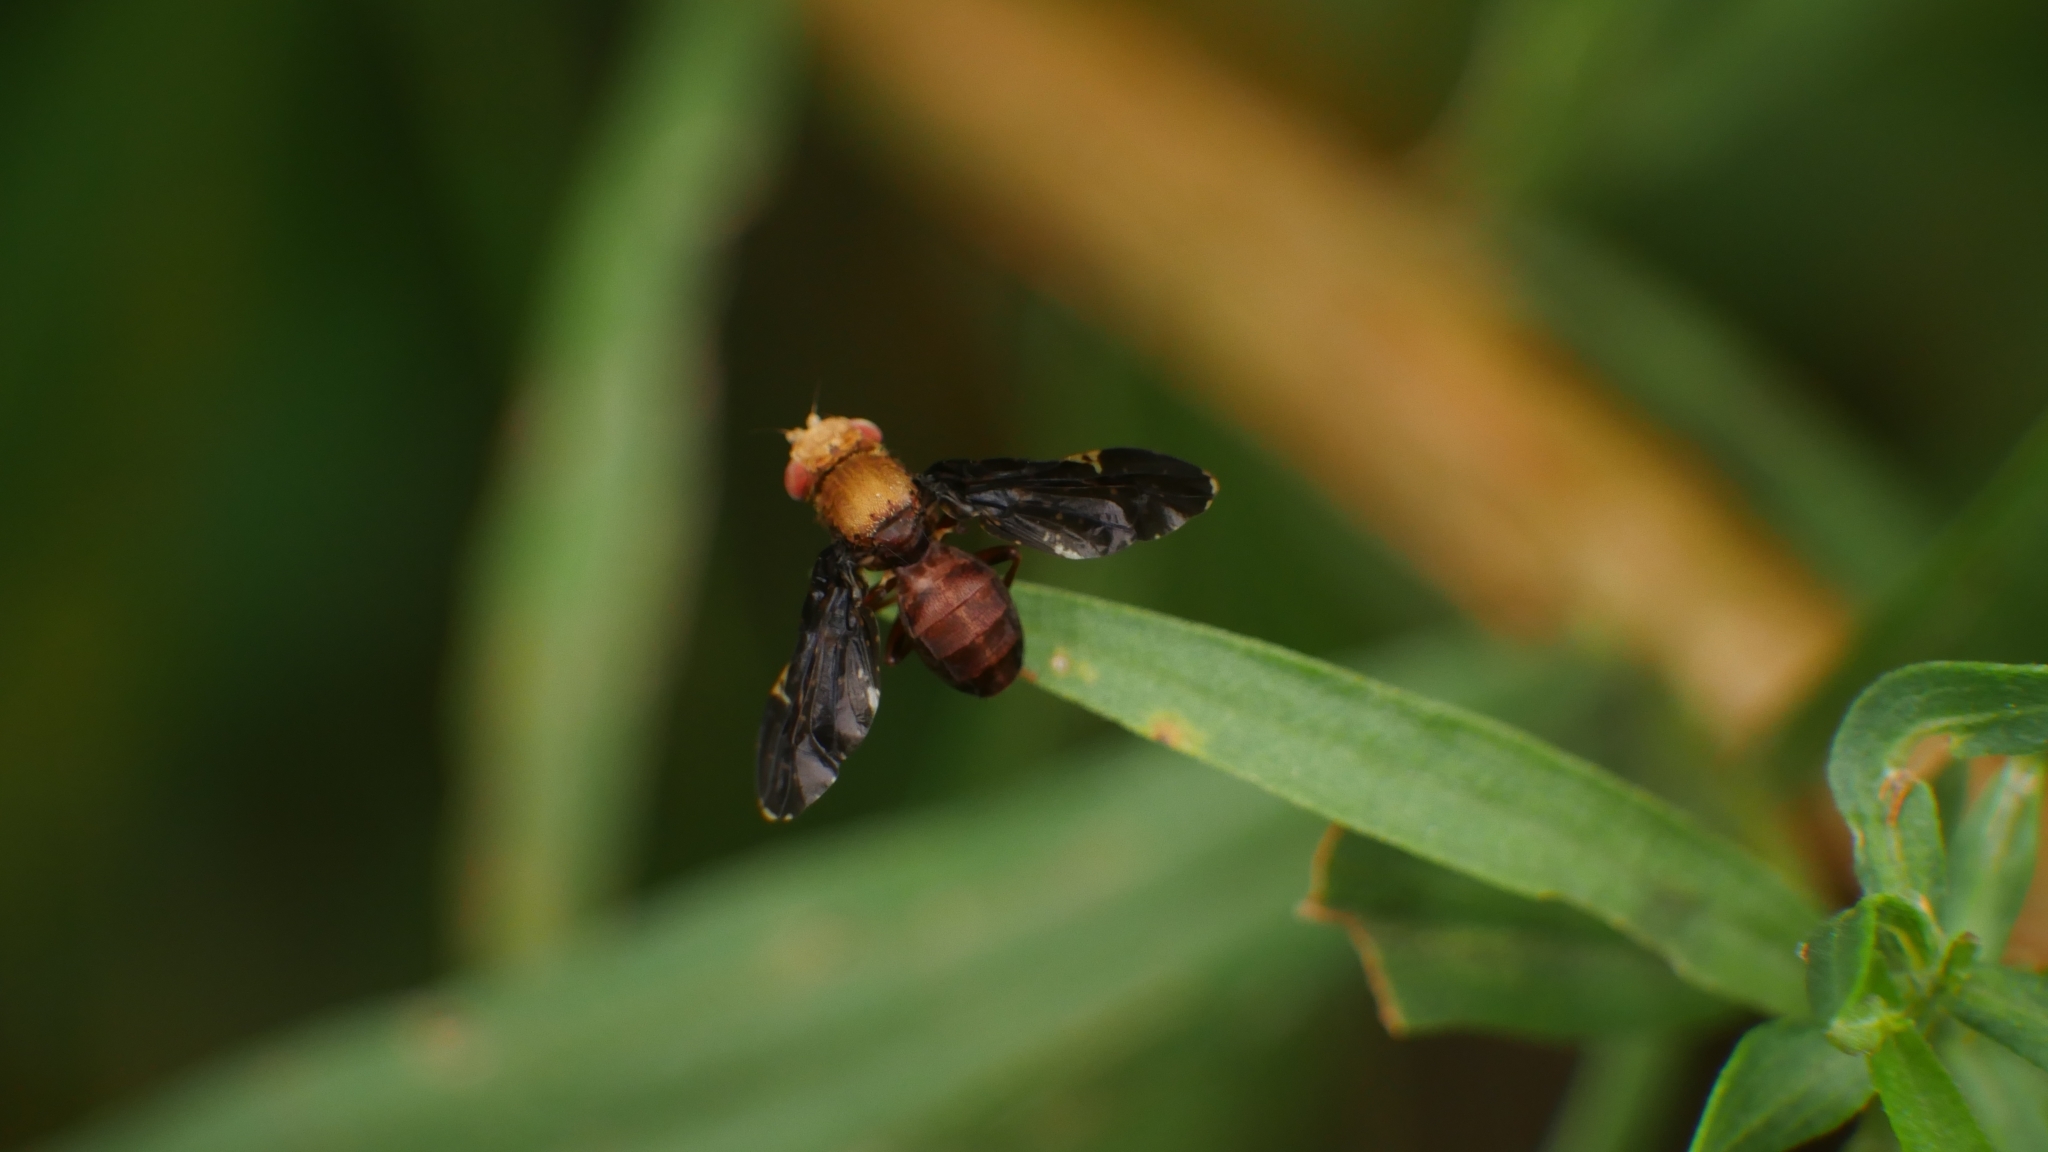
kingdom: Animalia
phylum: Arthropoda
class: Insecta
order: Diptera
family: Tephritidae
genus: Eurosta
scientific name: Eurosta comma
